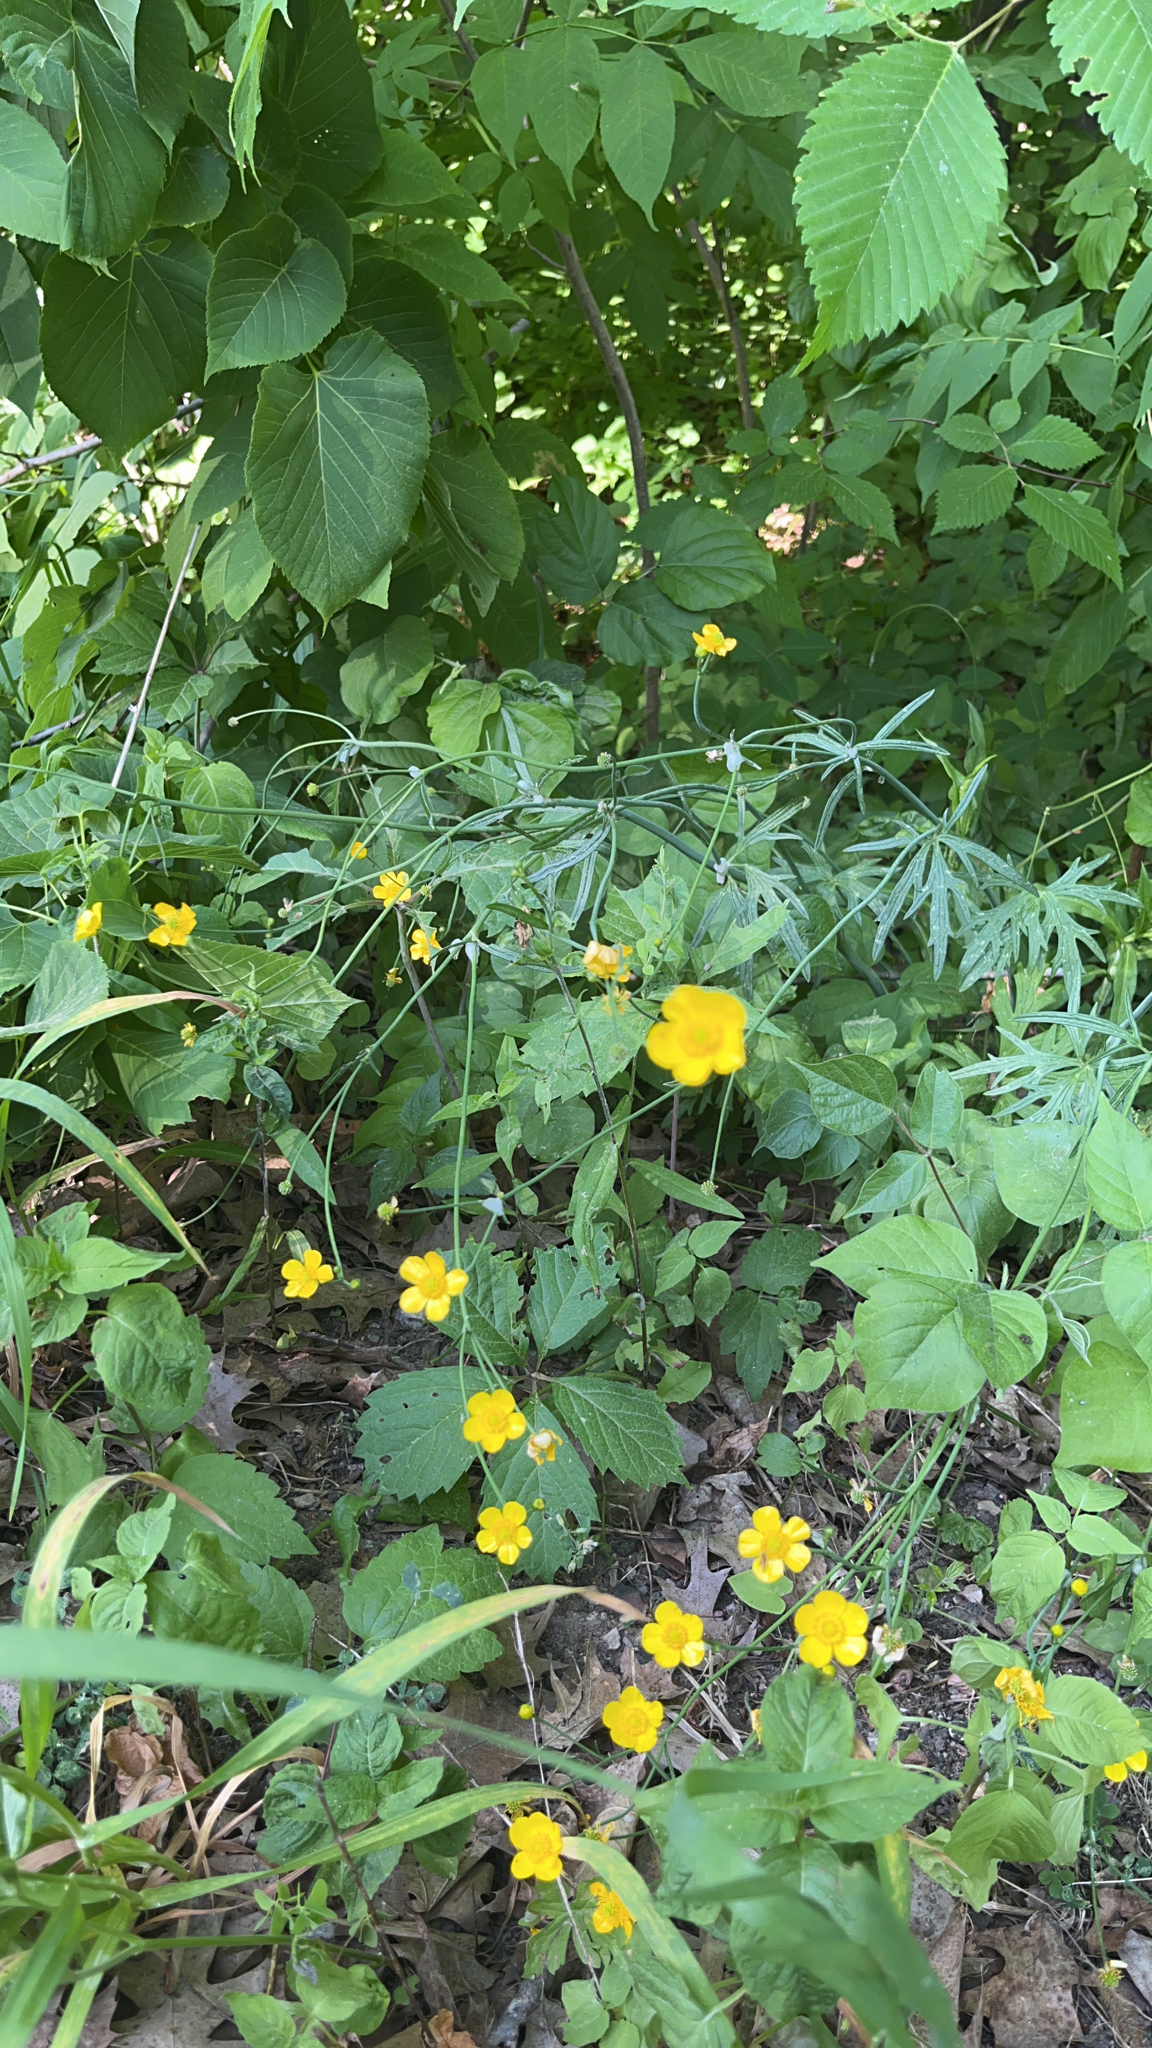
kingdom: Plantae
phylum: Tracheophyta
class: Magnoliopsida
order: Ranunculales
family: Ranunculaceae
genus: Ranunculus
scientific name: Ranunculus acris
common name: Meadow buttercup
